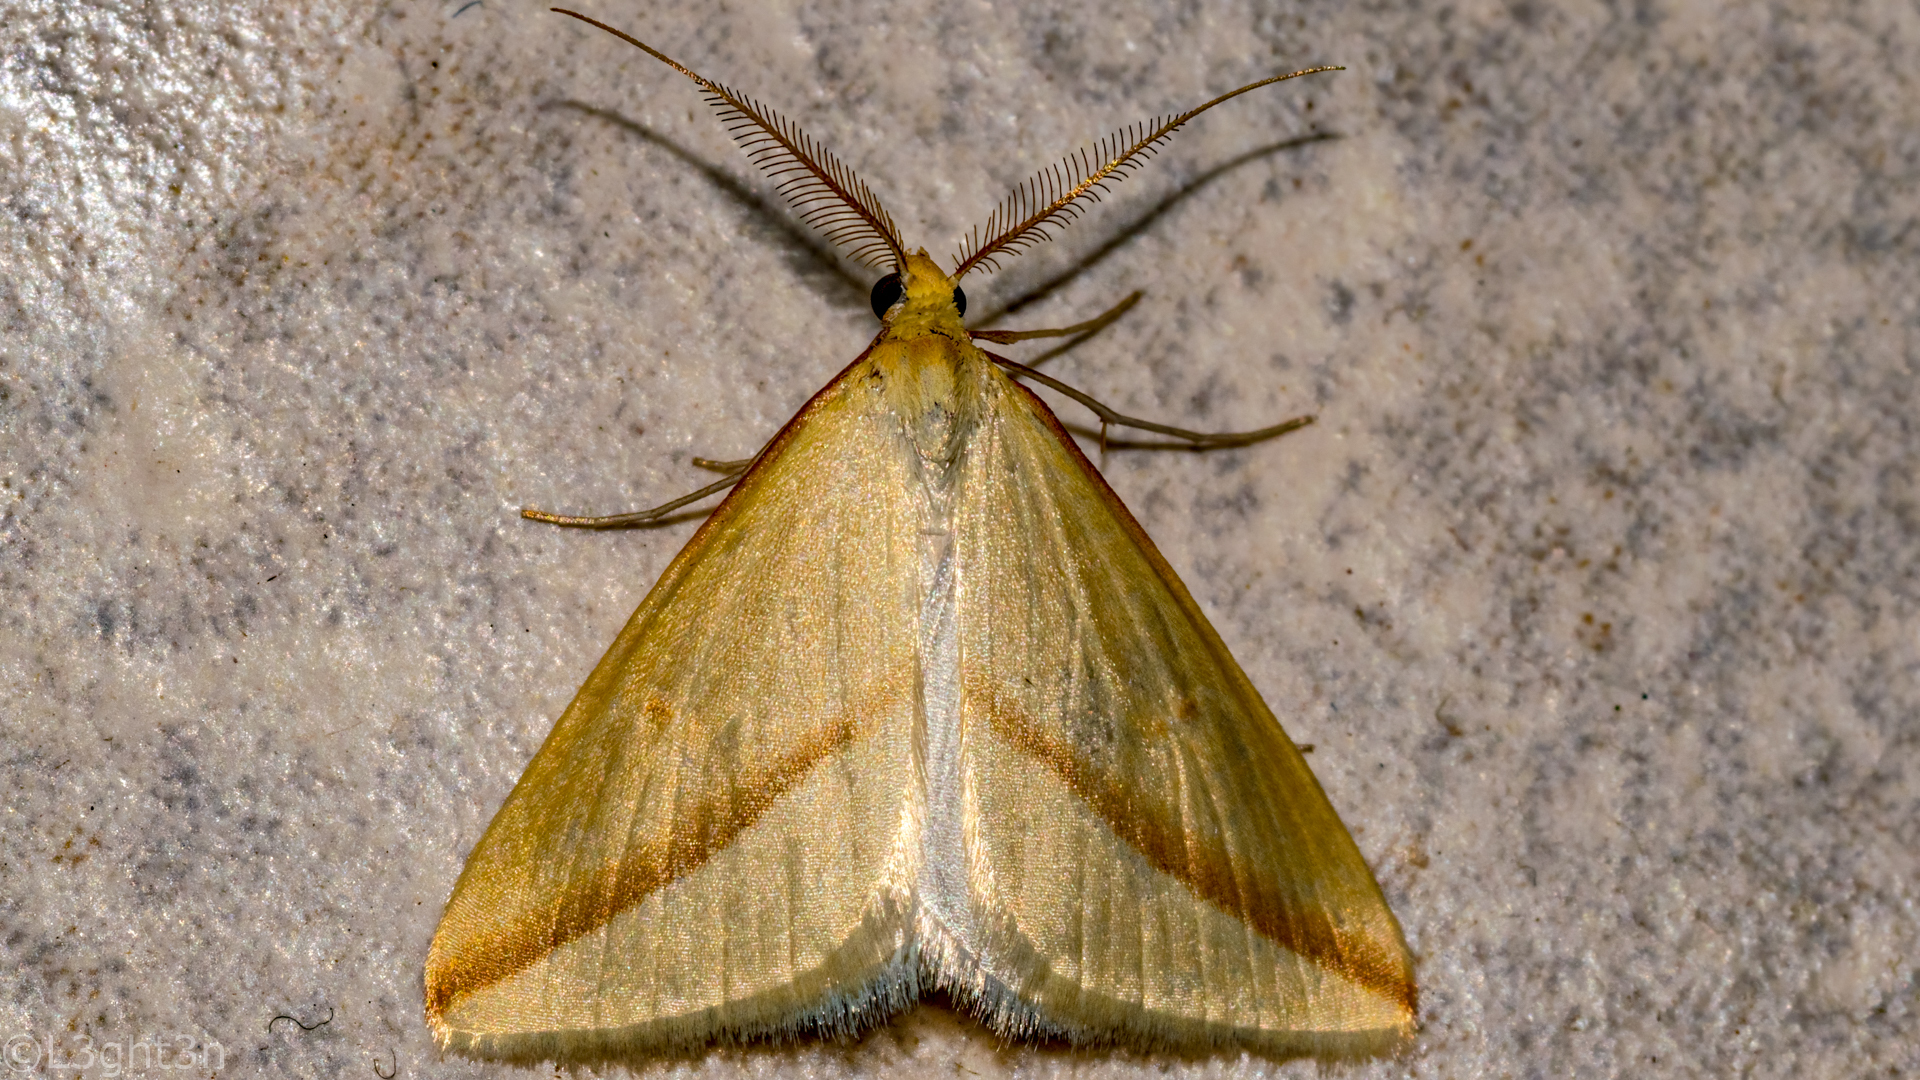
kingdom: Animalia
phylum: Arthropoda
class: Insecta
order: Lepidoptera
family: Geometridae
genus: Rhodometra
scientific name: Rhodometra sacraria
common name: Vestal
